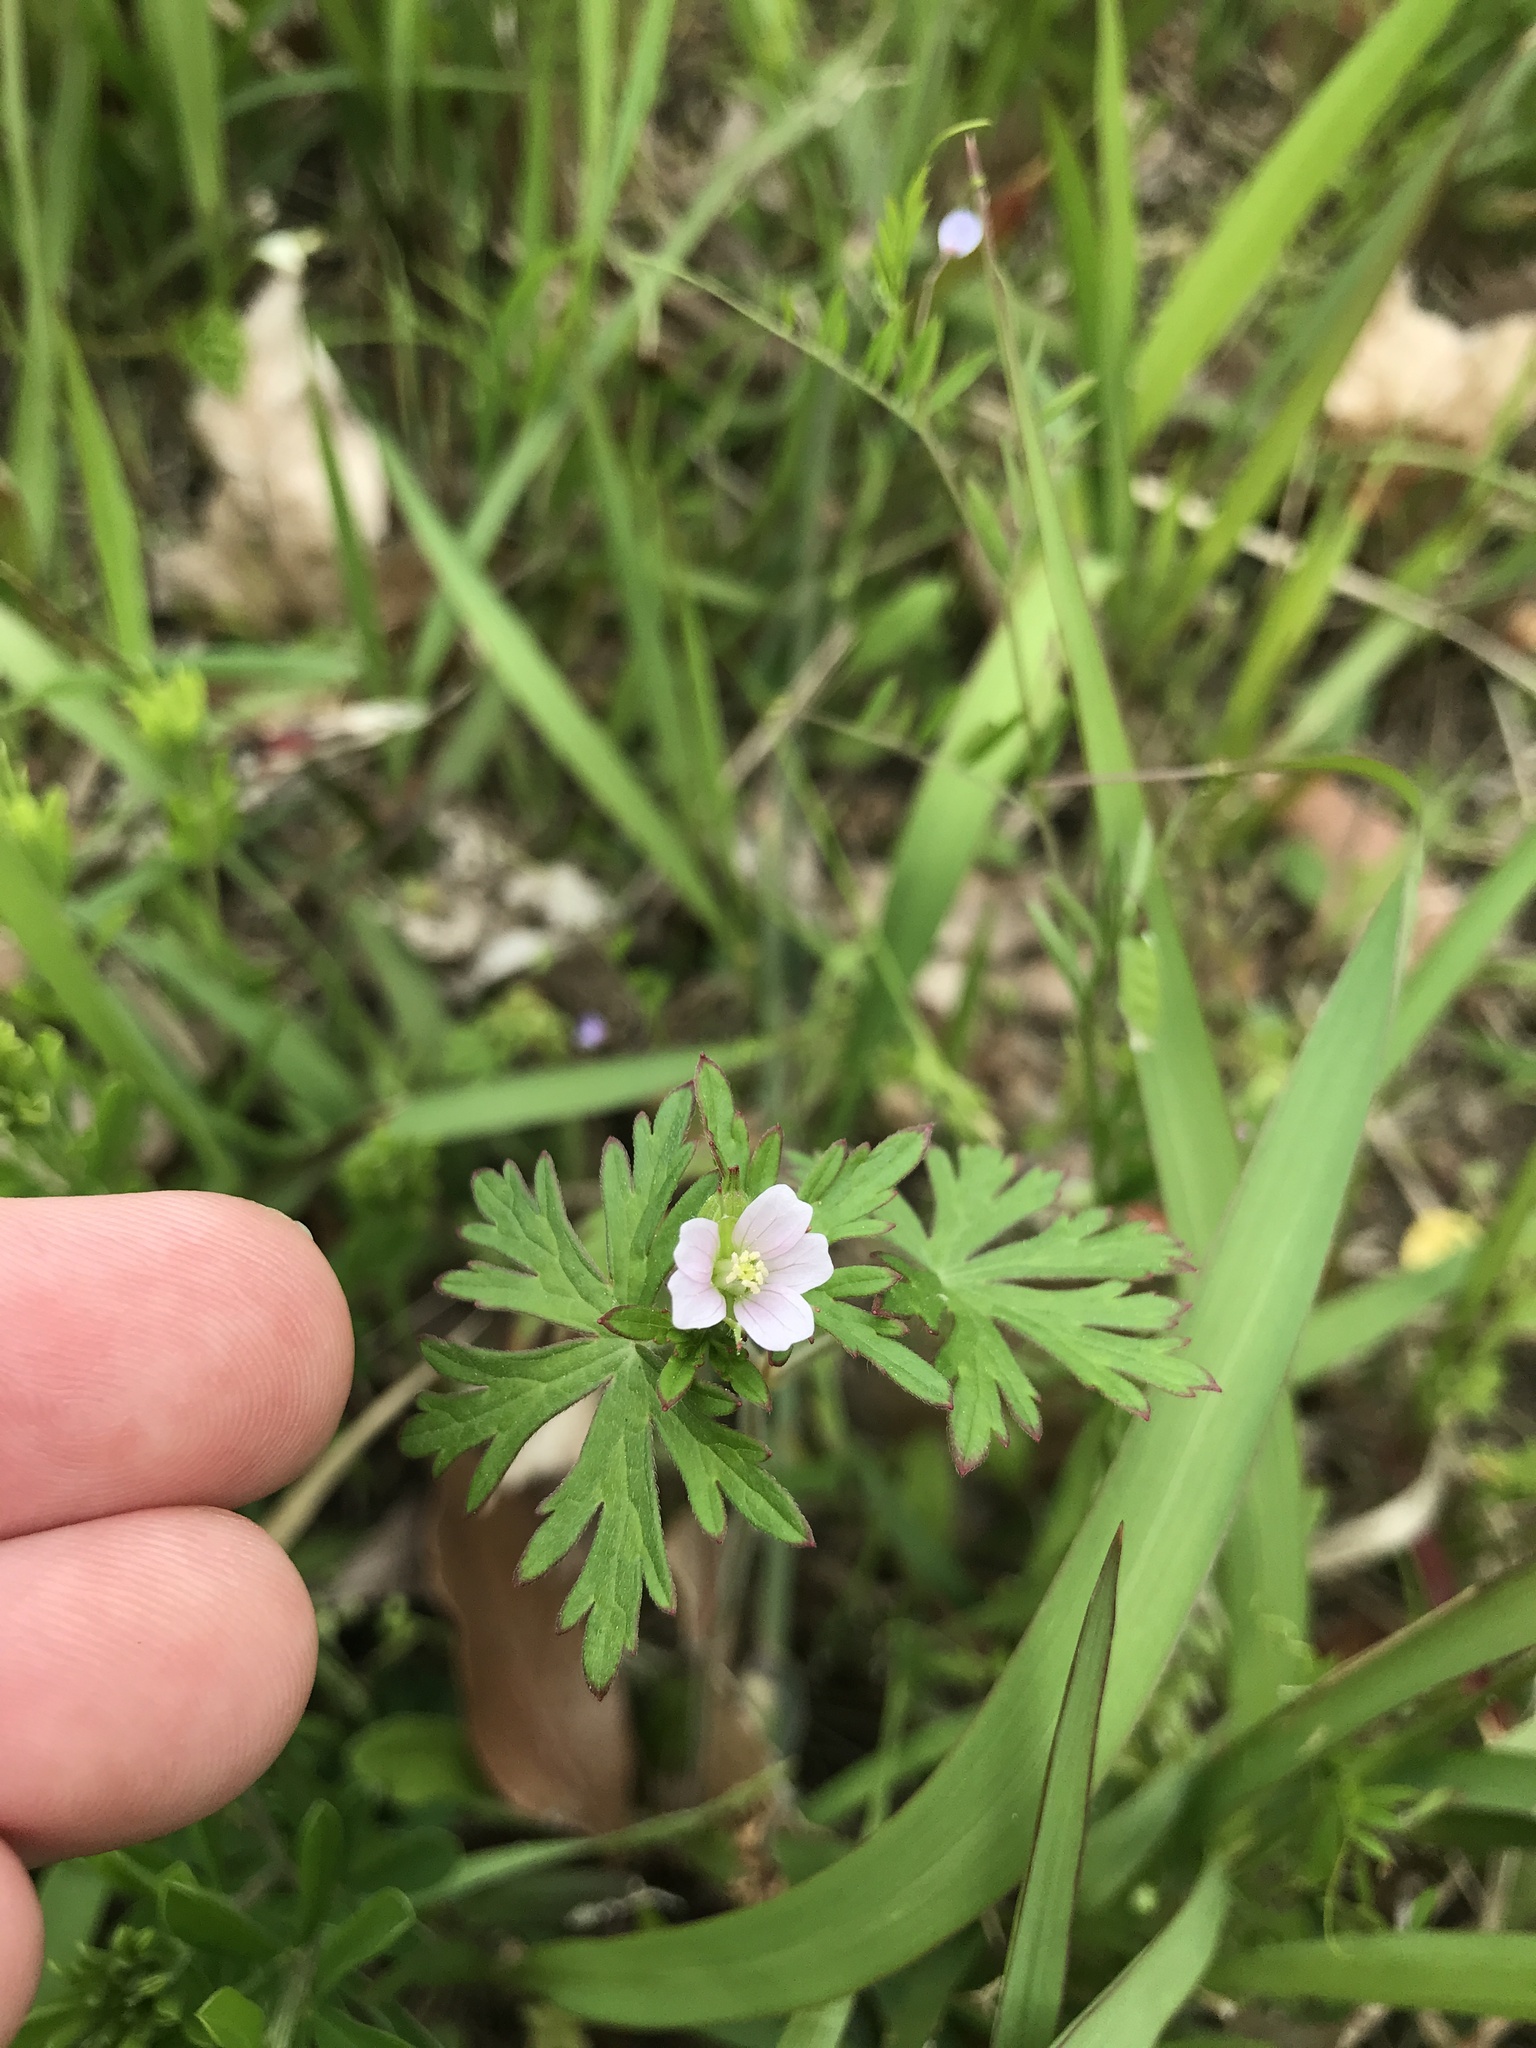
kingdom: Plantae
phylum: Tracheophyta
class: Magnoliopsida
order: Geraniales
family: Geraniaceae
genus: Geranium
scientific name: Geranium carolinianum
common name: Carolina crane's-bill
